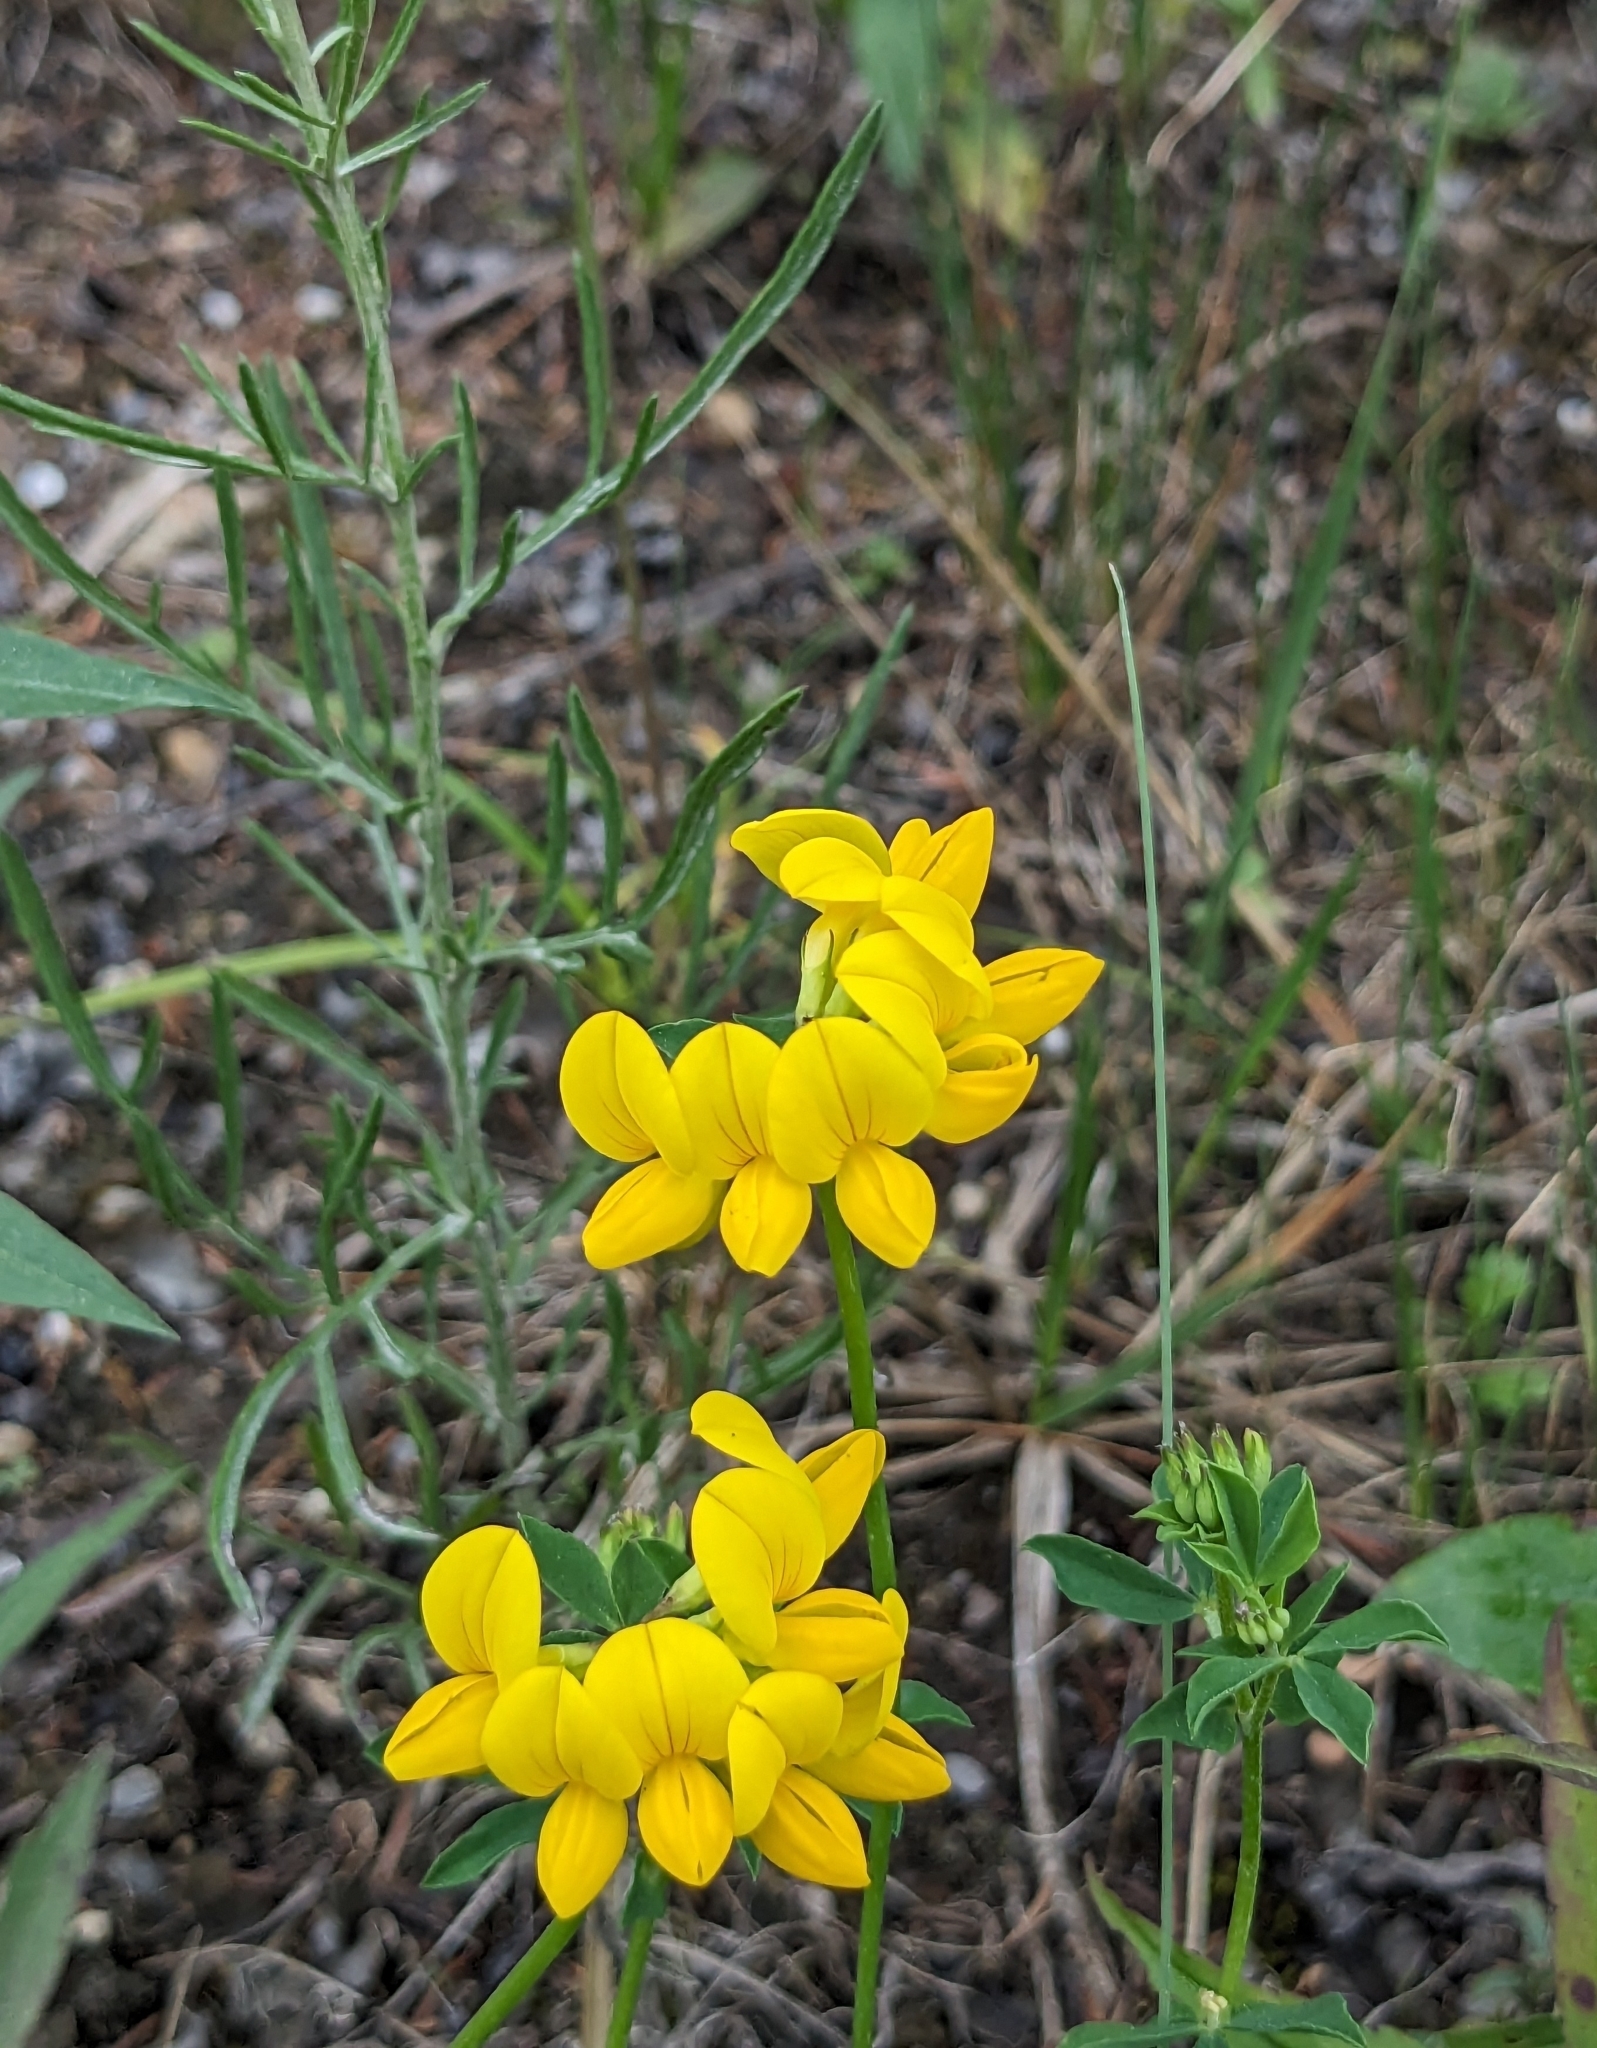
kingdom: Plantae
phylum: Tracheophyta
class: Magnoliopsida
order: Fabales
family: Fabaceae
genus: Lotus
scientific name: Lotus corniculatus
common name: Common bird's-foot-trefoil
